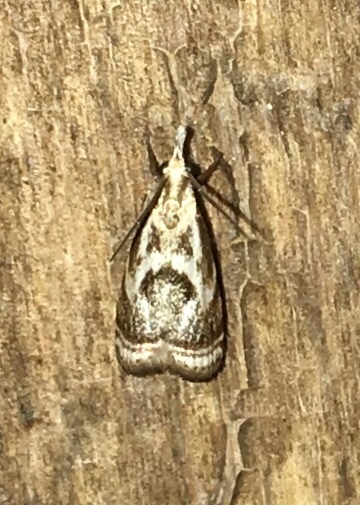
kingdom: Animalia
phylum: Arthropoda
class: Insecta
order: Lepidoptera
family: Crambidae
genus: Microcrambus
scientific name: Microcrambus elegans
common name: Elegant grass-veneer
